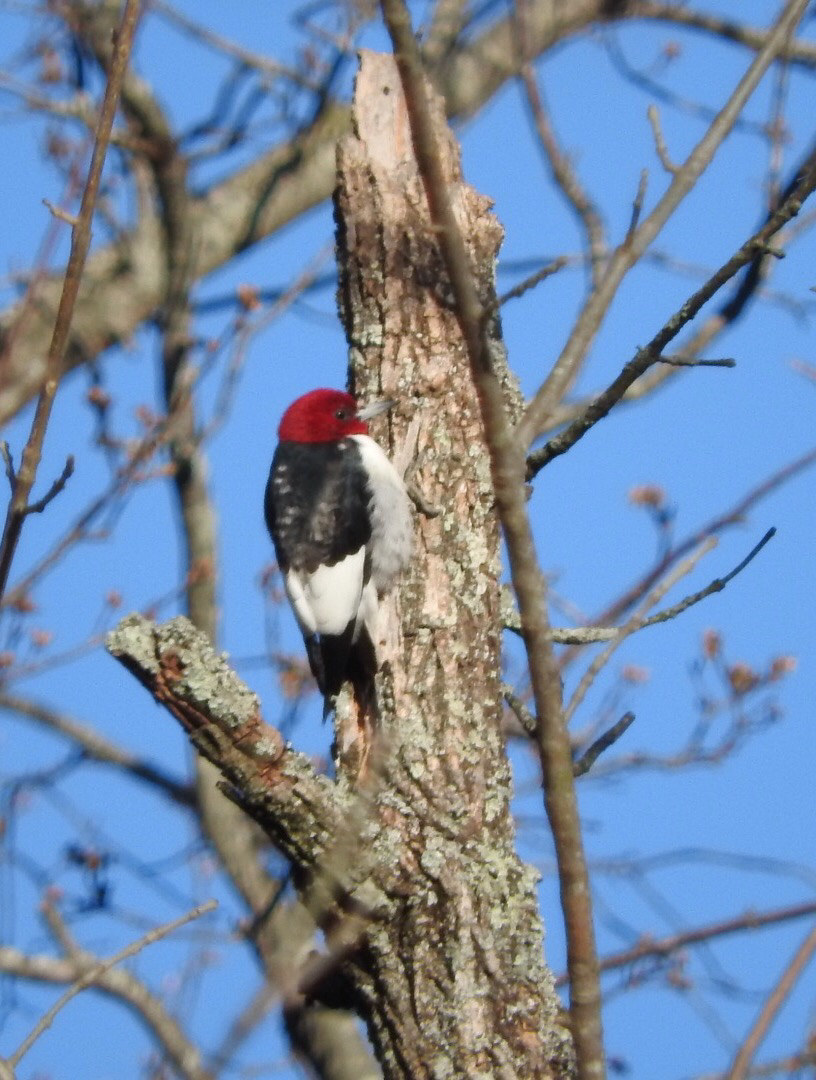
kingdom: Animalia
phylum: Chordata
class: Aves
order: Piciformes
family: Picidae
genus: Melanerpes
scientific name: Melanerpes erythrocephalus
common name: Red-headed woodpecker
